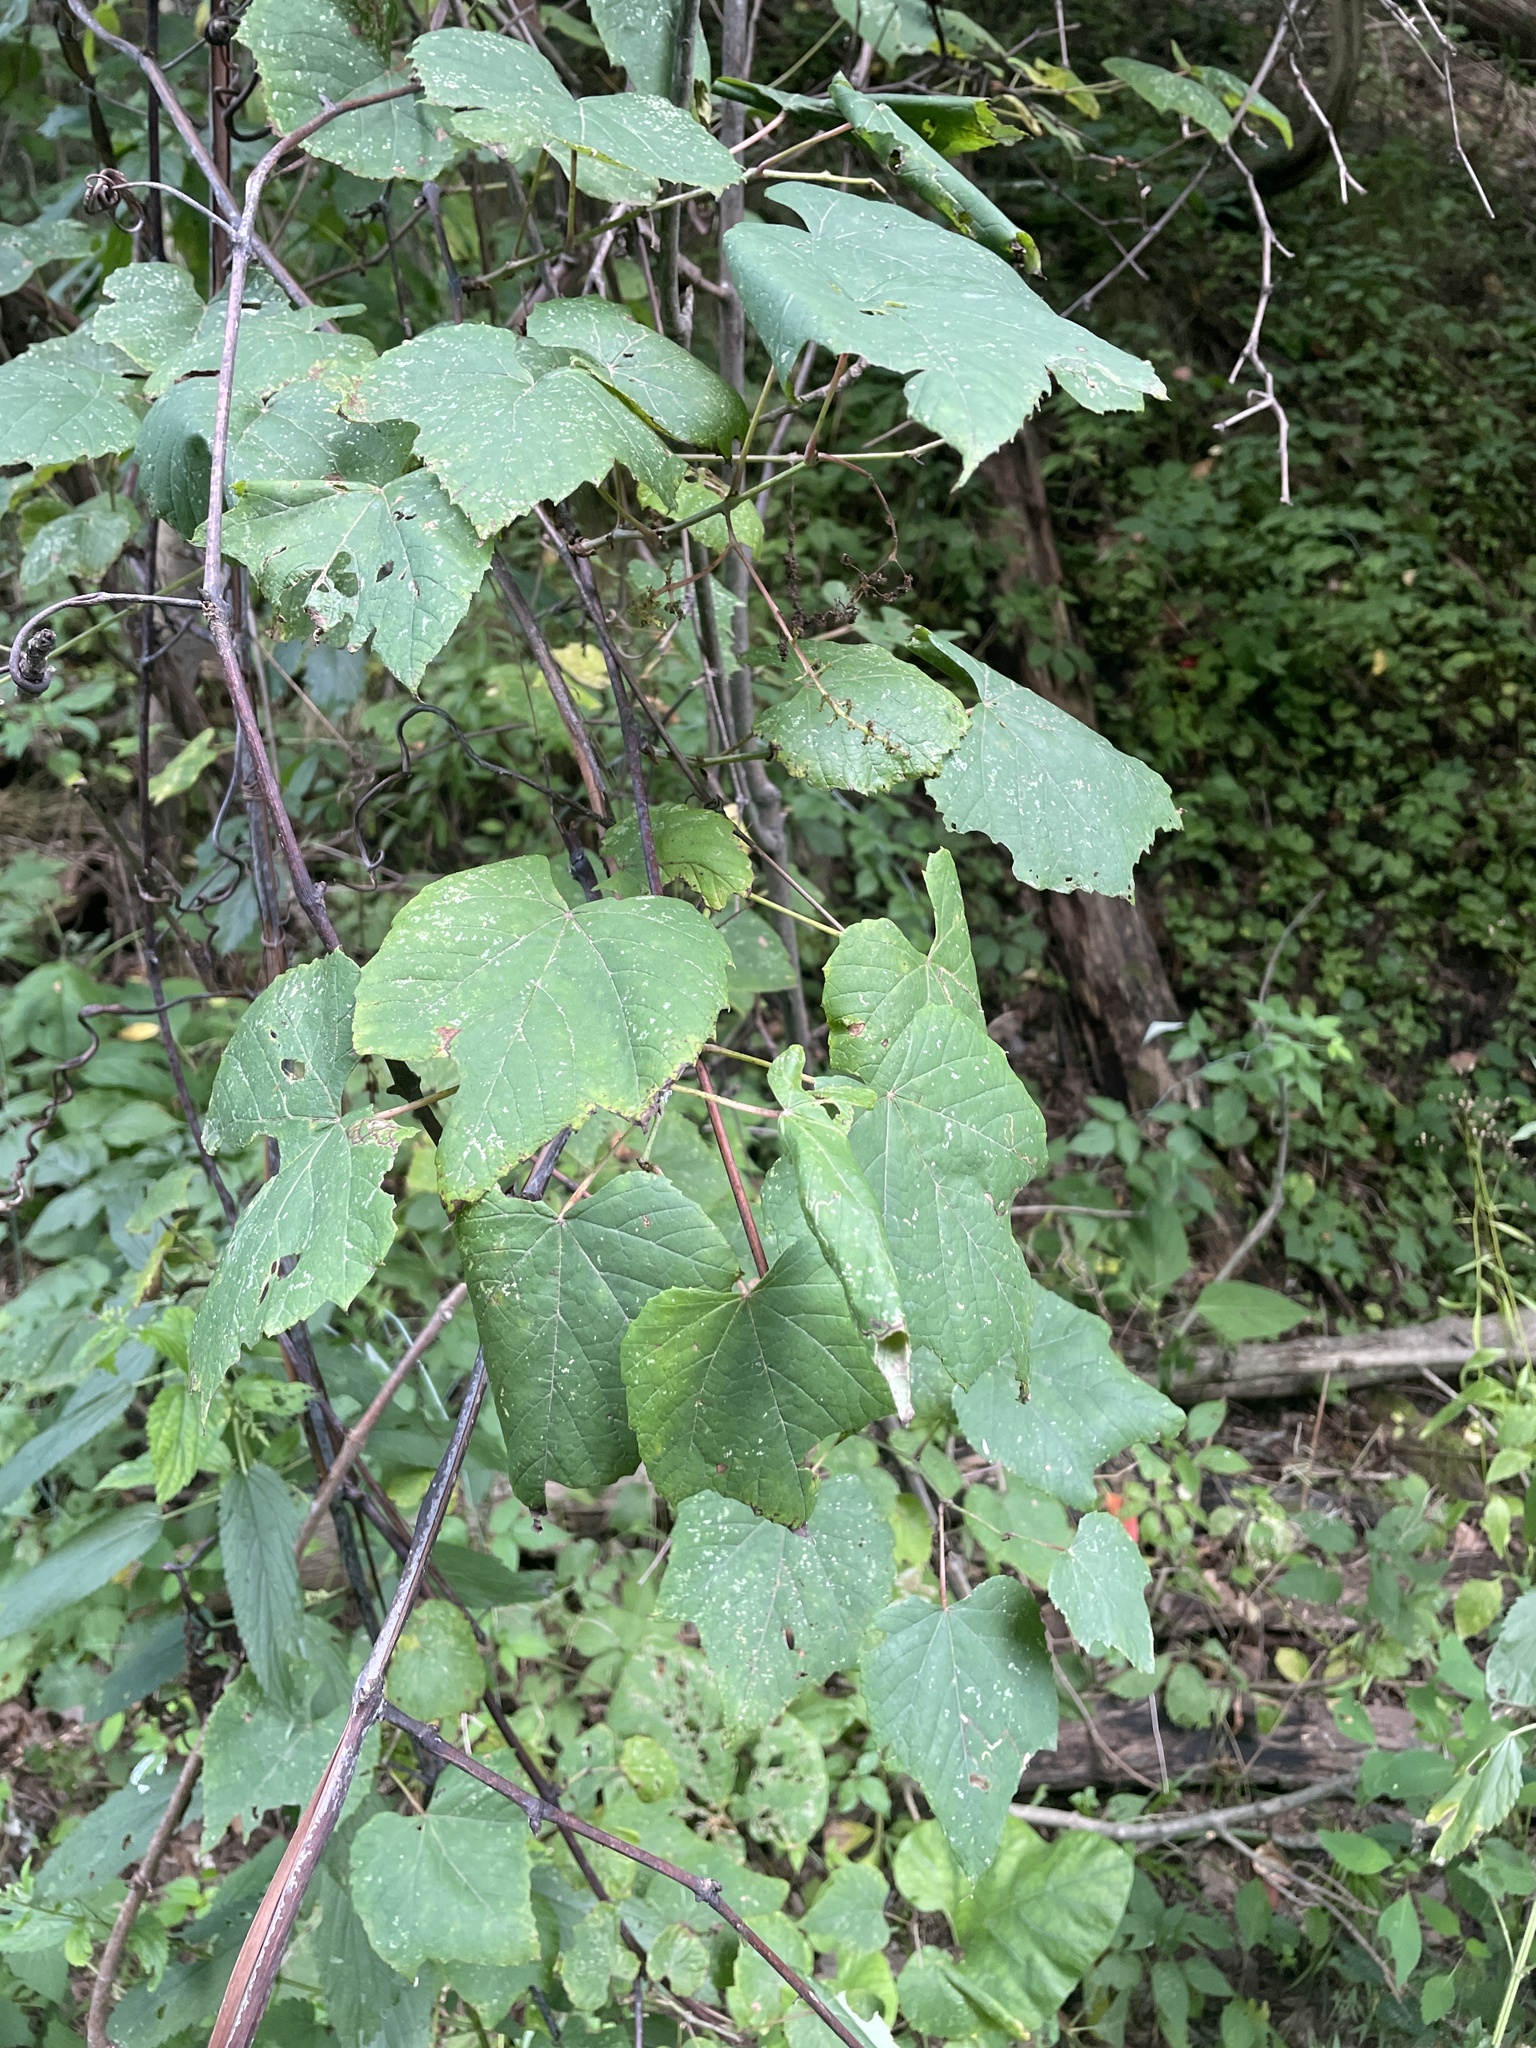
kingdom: Plantae
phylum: Tracheophyta
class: Magnoliopsida
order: Vitales
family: Vitaceae
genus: Vitis
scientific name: Vitis aestivalis
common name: Pigeon grape
